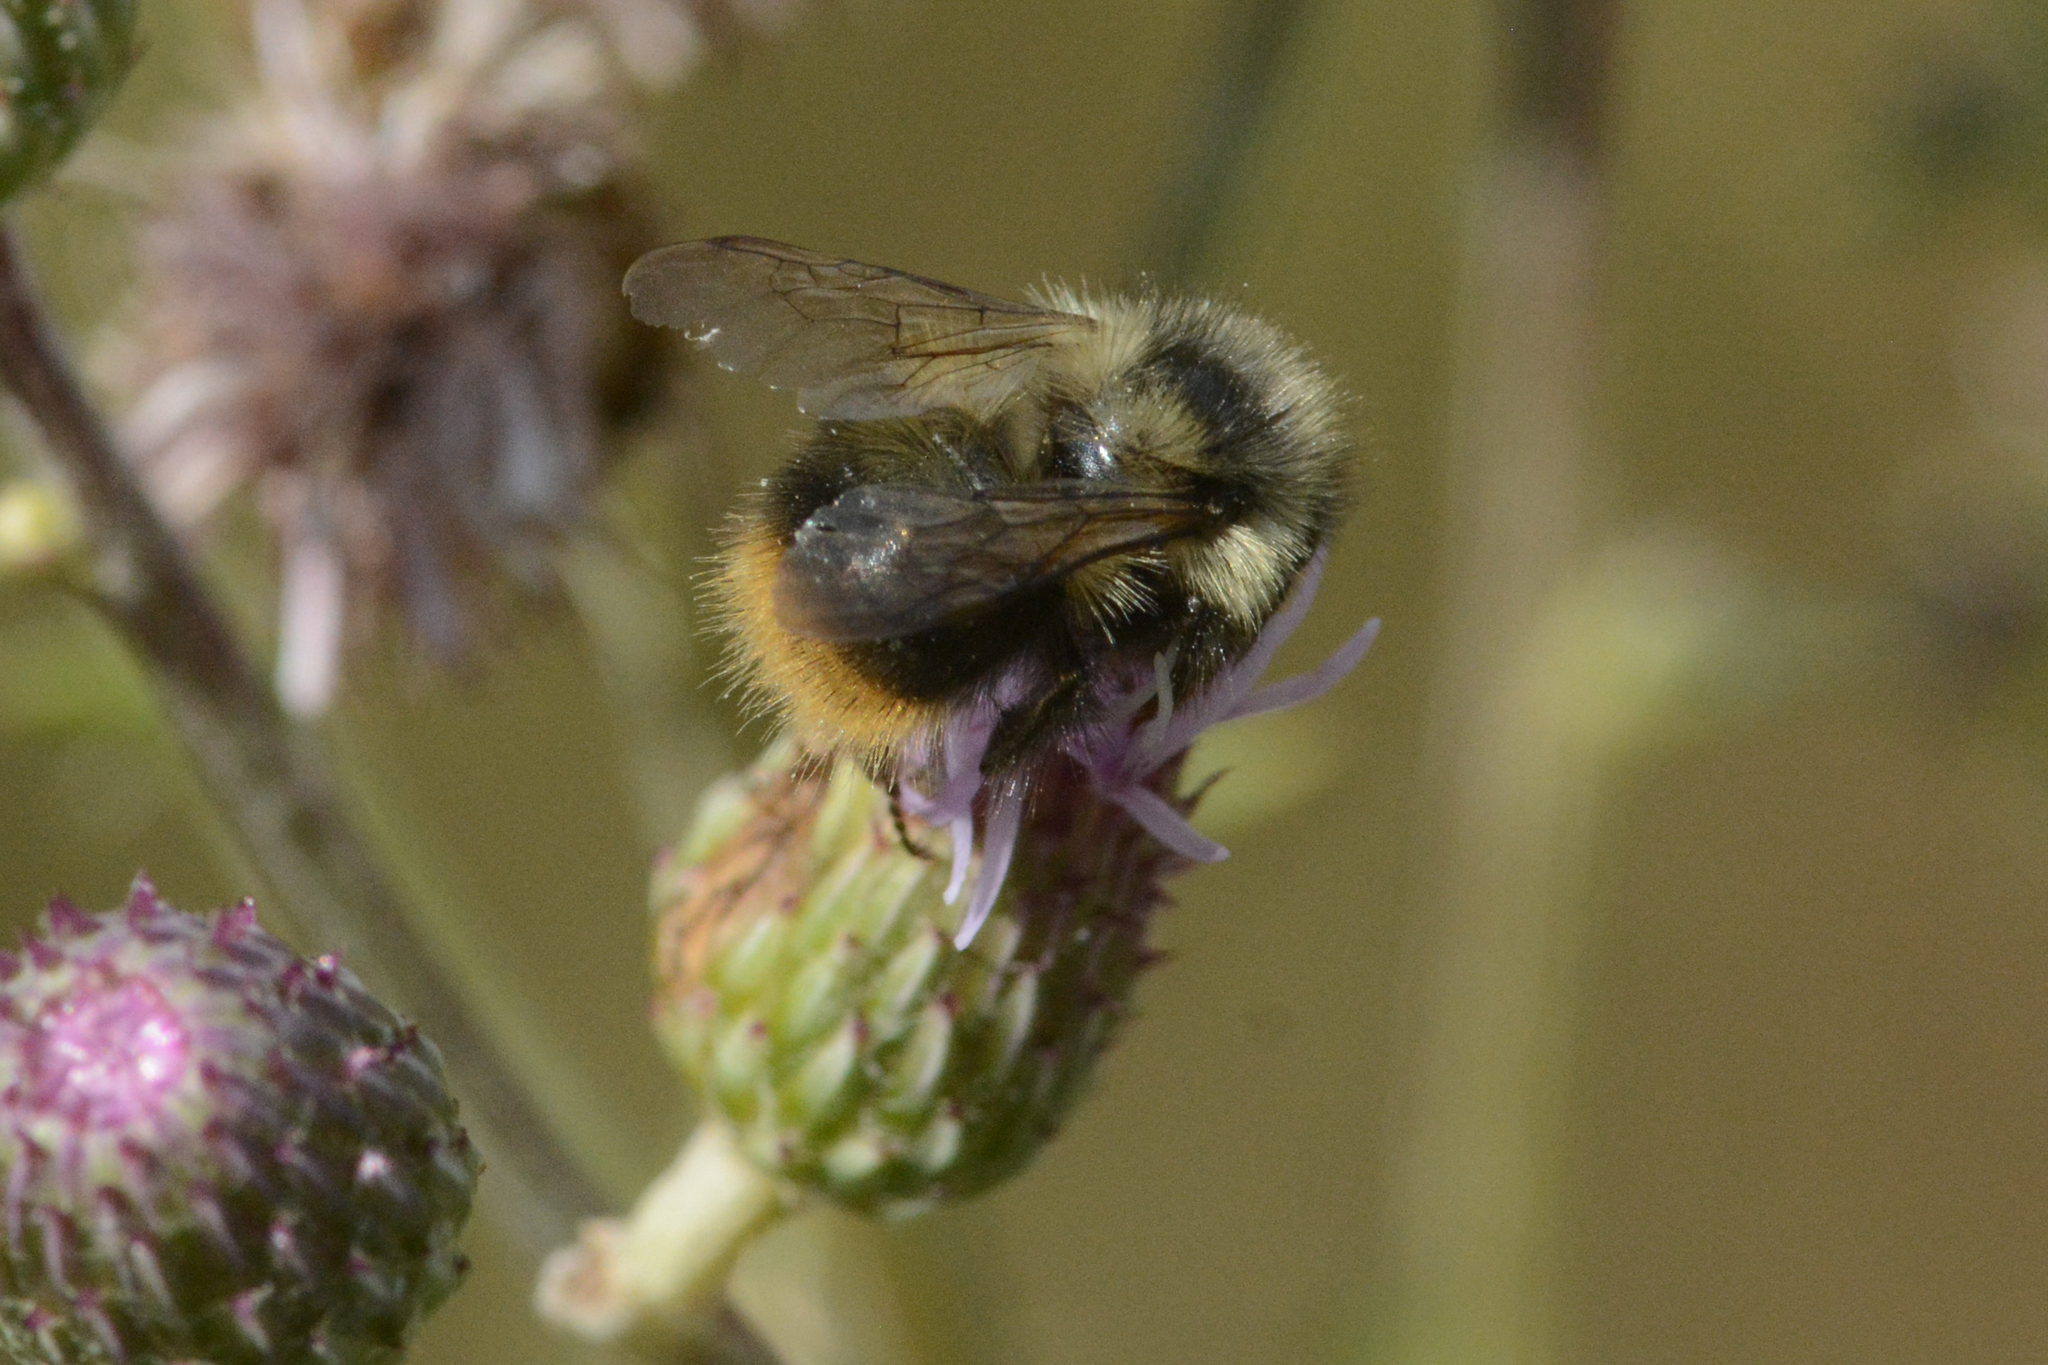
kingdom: Animalia
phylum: Arthropoda
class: Insecta
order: Hymenoptera
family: Apidae
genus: Bombus
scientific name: Bombus mixtus
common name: Fuzzy-horned bumble bee
